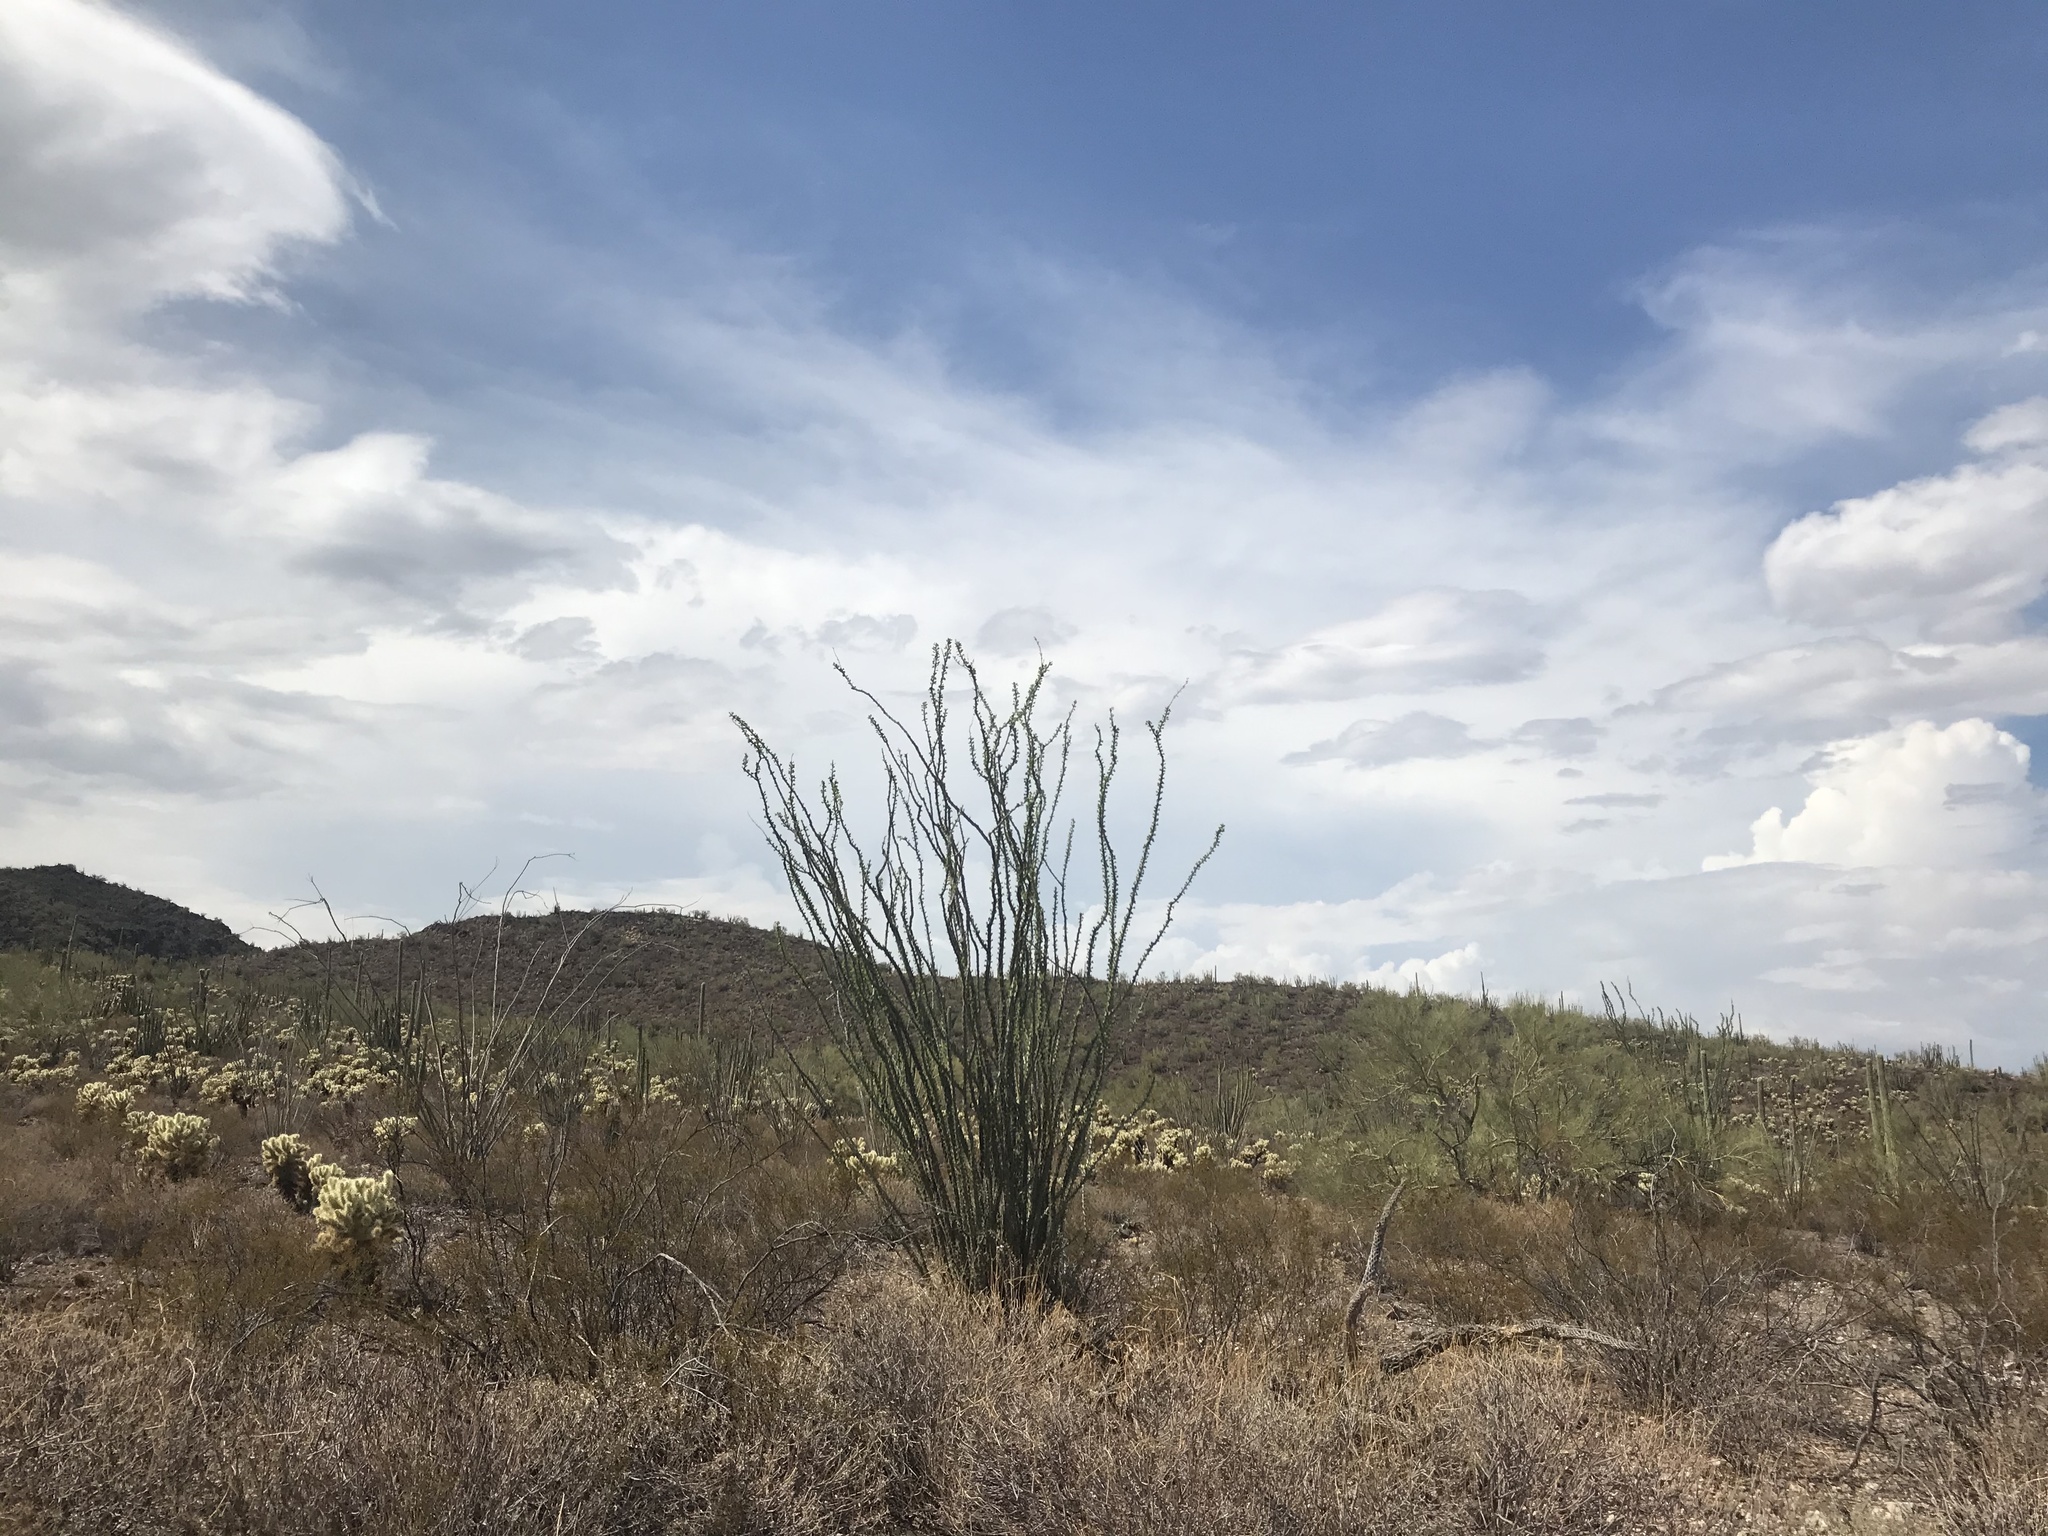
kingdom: Plantae
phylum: Tracheophyta
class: Magnoliopsida
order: Ericales
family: Fouquieriaceae
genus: Fouquieria
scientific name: Fouquieria splendens
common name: Vine-cactus
